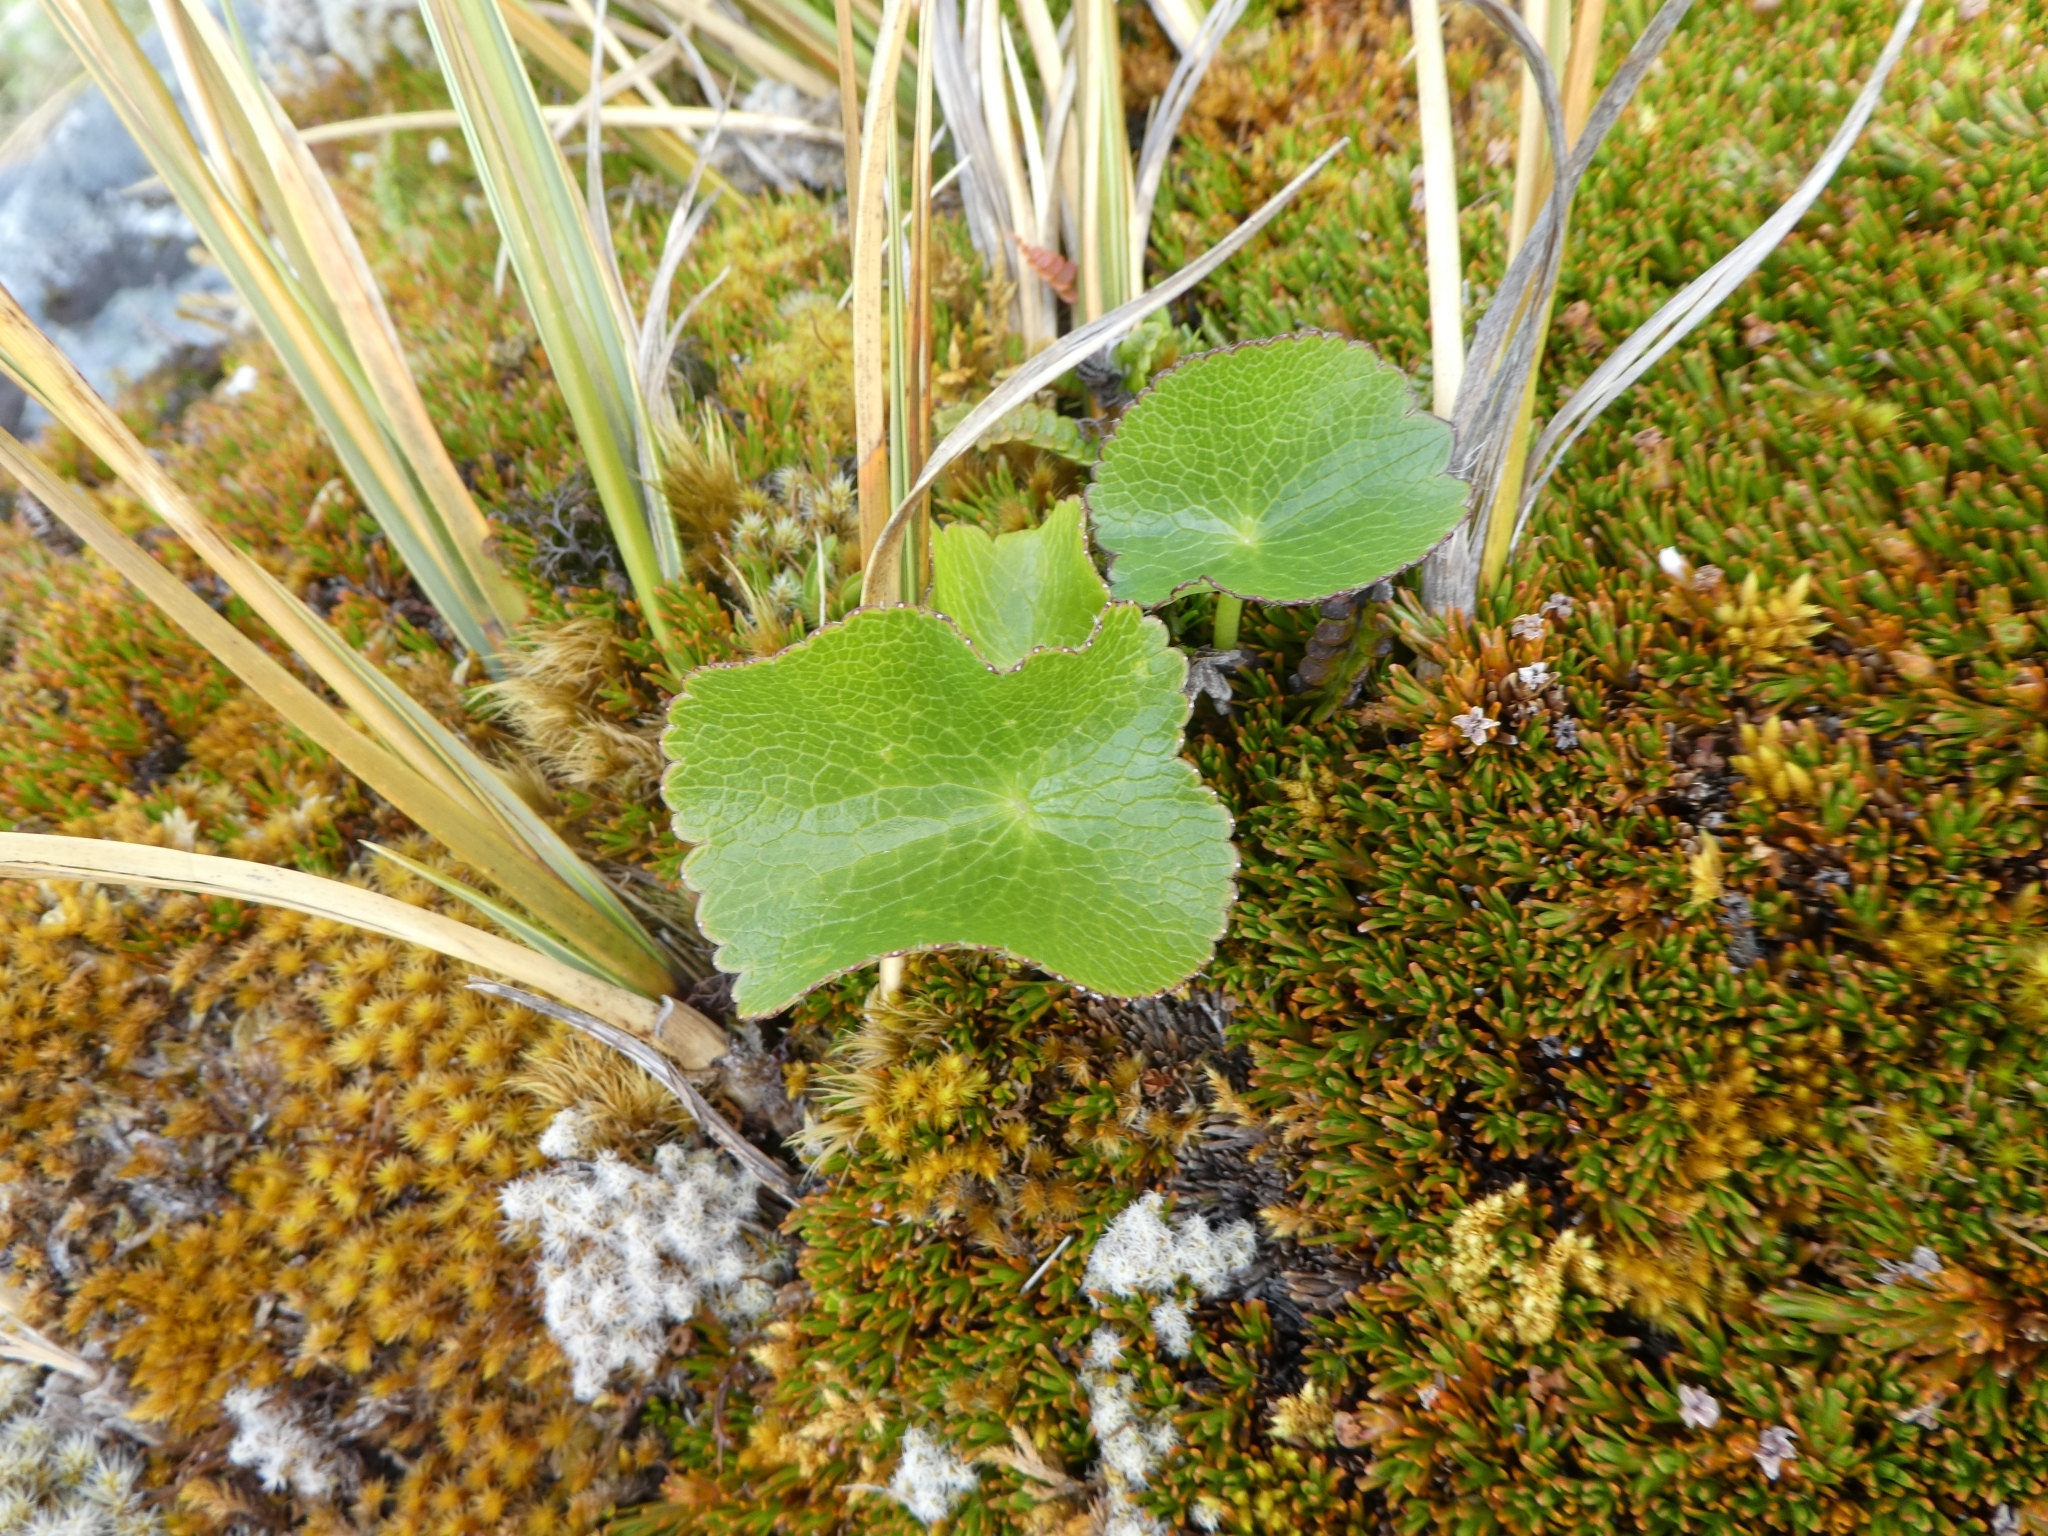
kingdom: Plantae
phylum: Tracheophyta
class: Magnoliopsida
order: Ranunculales
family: Ranunculaceae
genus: Ranunculus
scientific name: Ranunculus lyallii
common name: Mountain-lily
